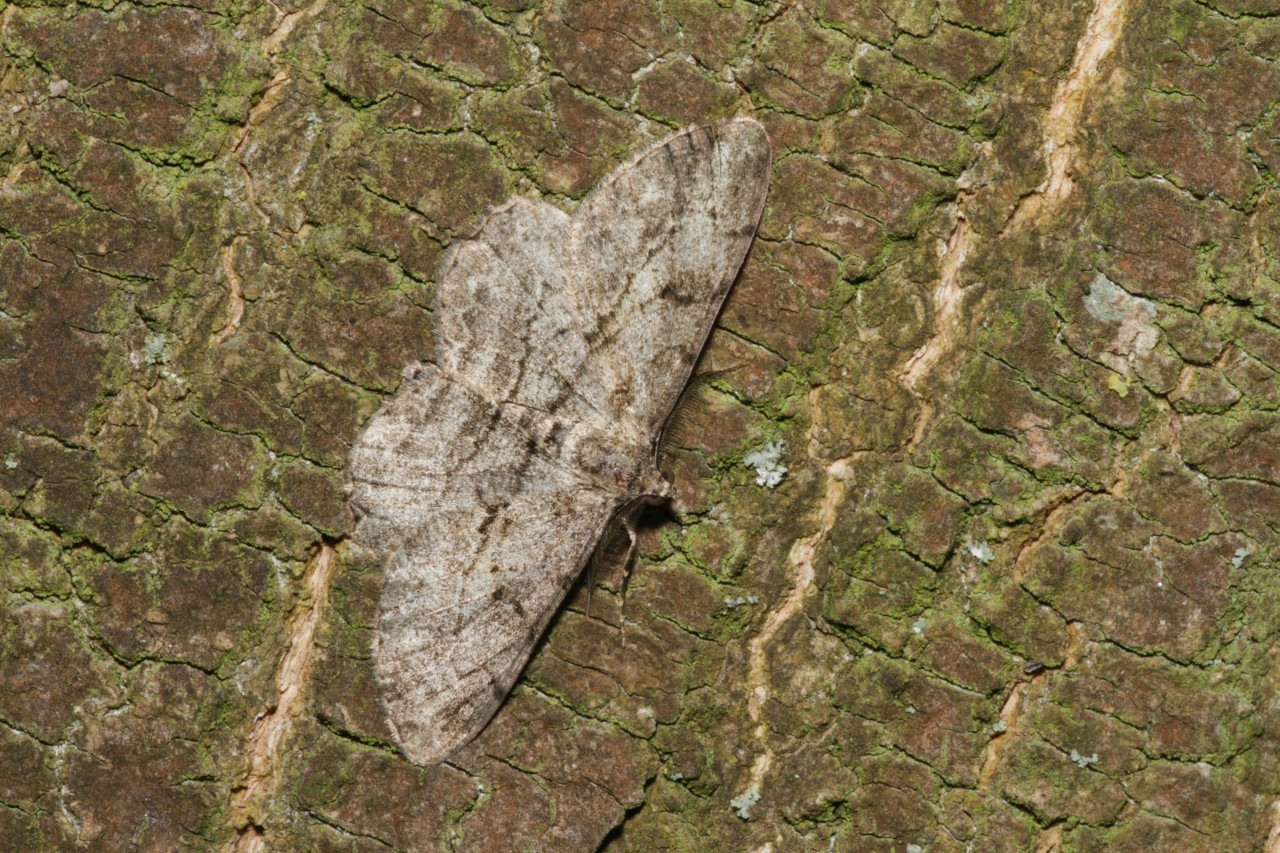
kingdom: Animalia
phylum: Arthropoda
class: Insecta
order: Lepidoptera
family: Geometridae
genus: Peribatodes
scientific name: Peribatodes rhomboidaria
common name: Willow beauty
